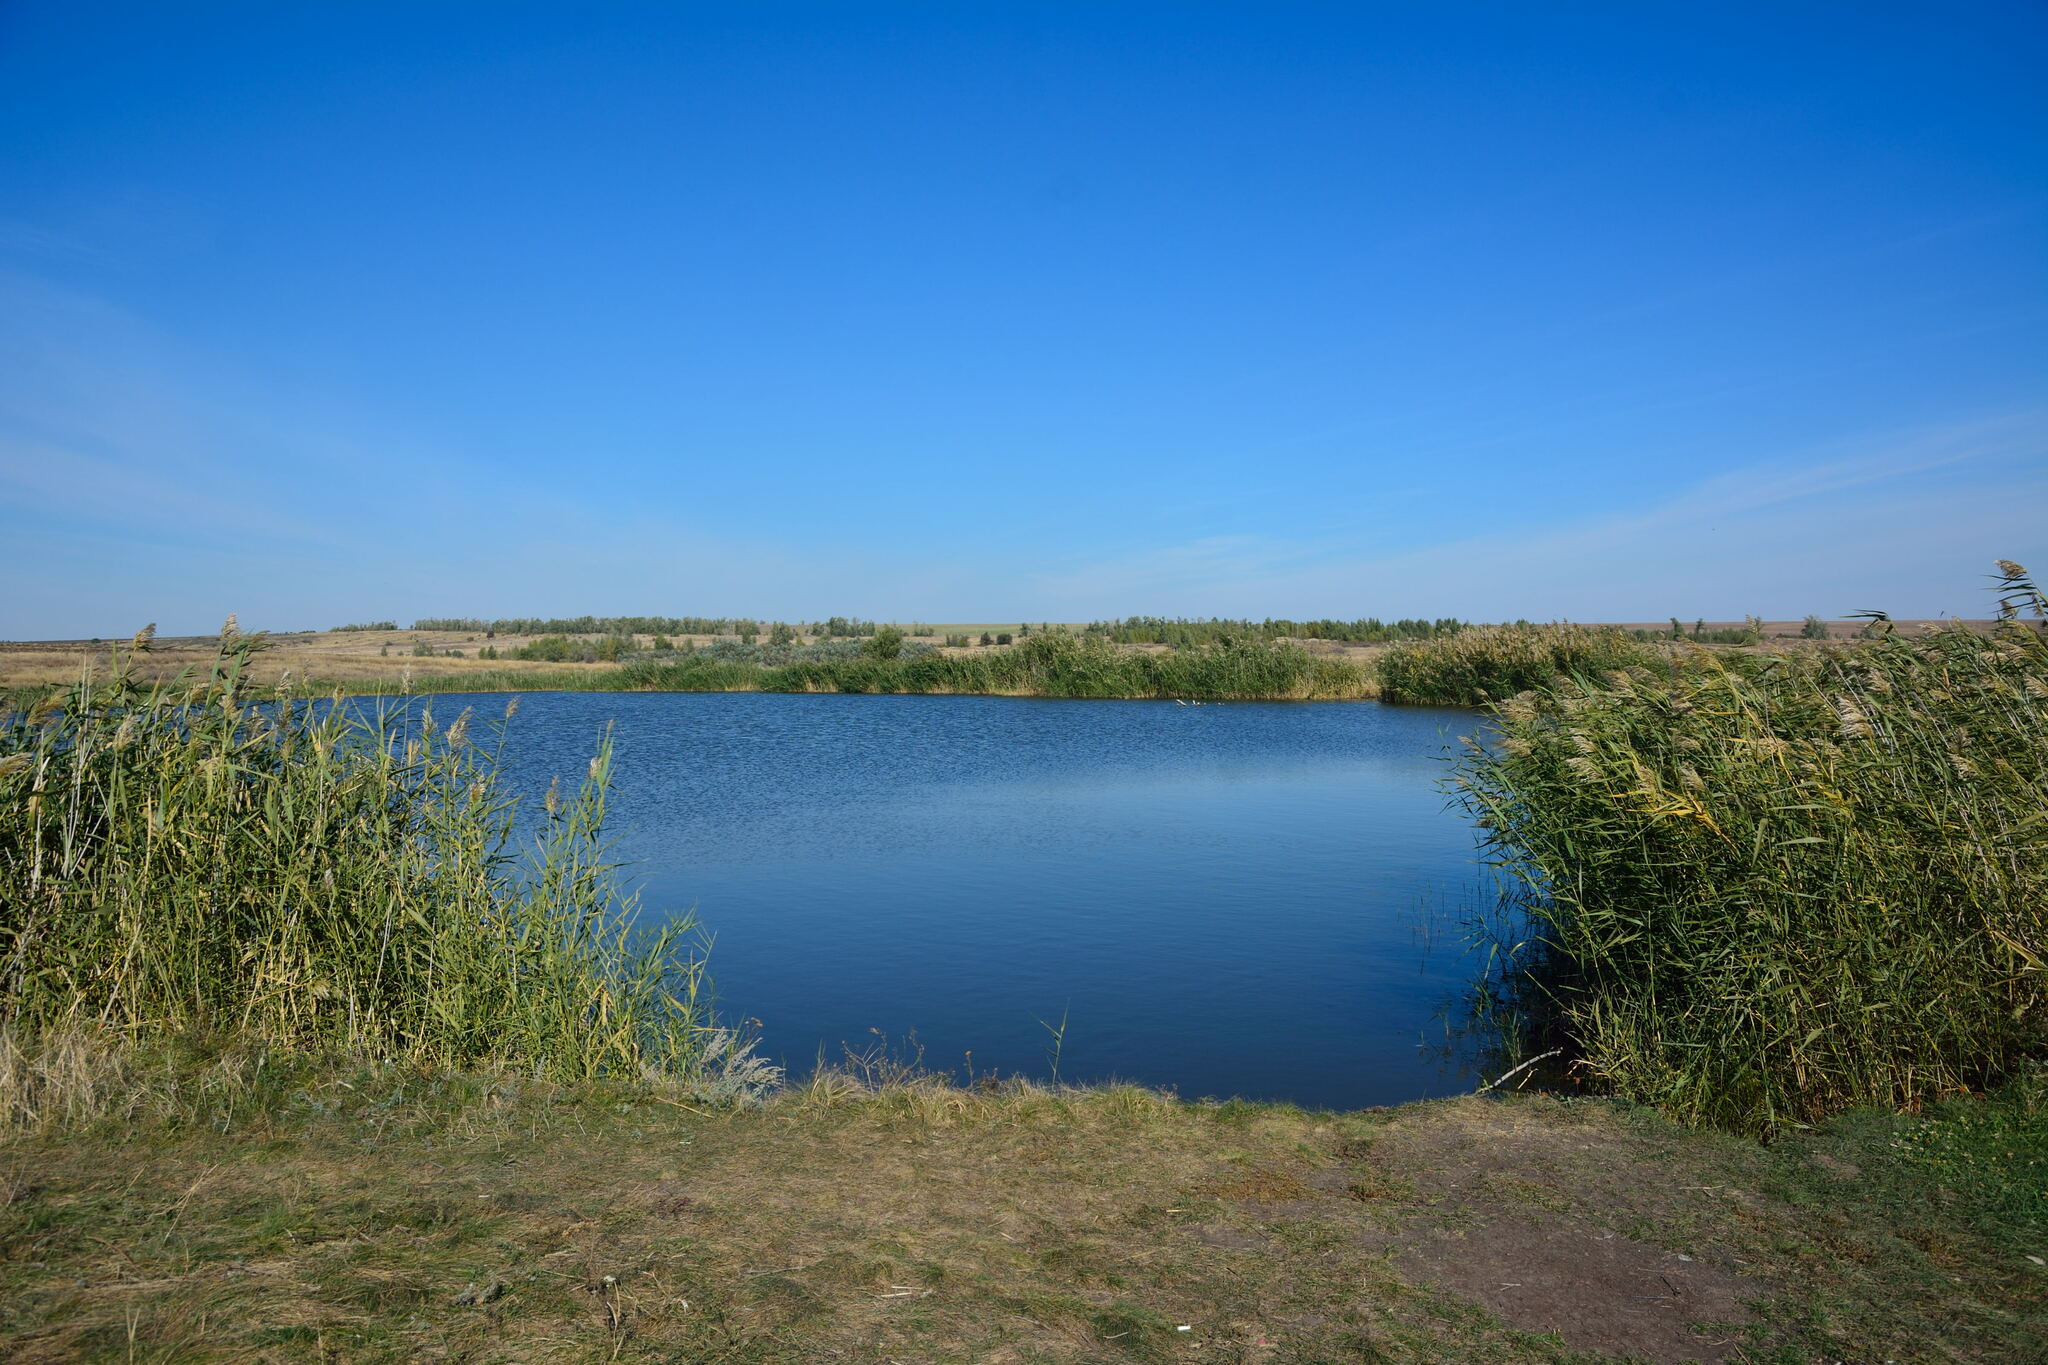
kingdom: Plantae
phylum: Tracheophyta
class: Liliopsida
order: Poales
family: Poaceae
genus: Phragmites
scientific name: Phragmites australis
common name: Common reed
